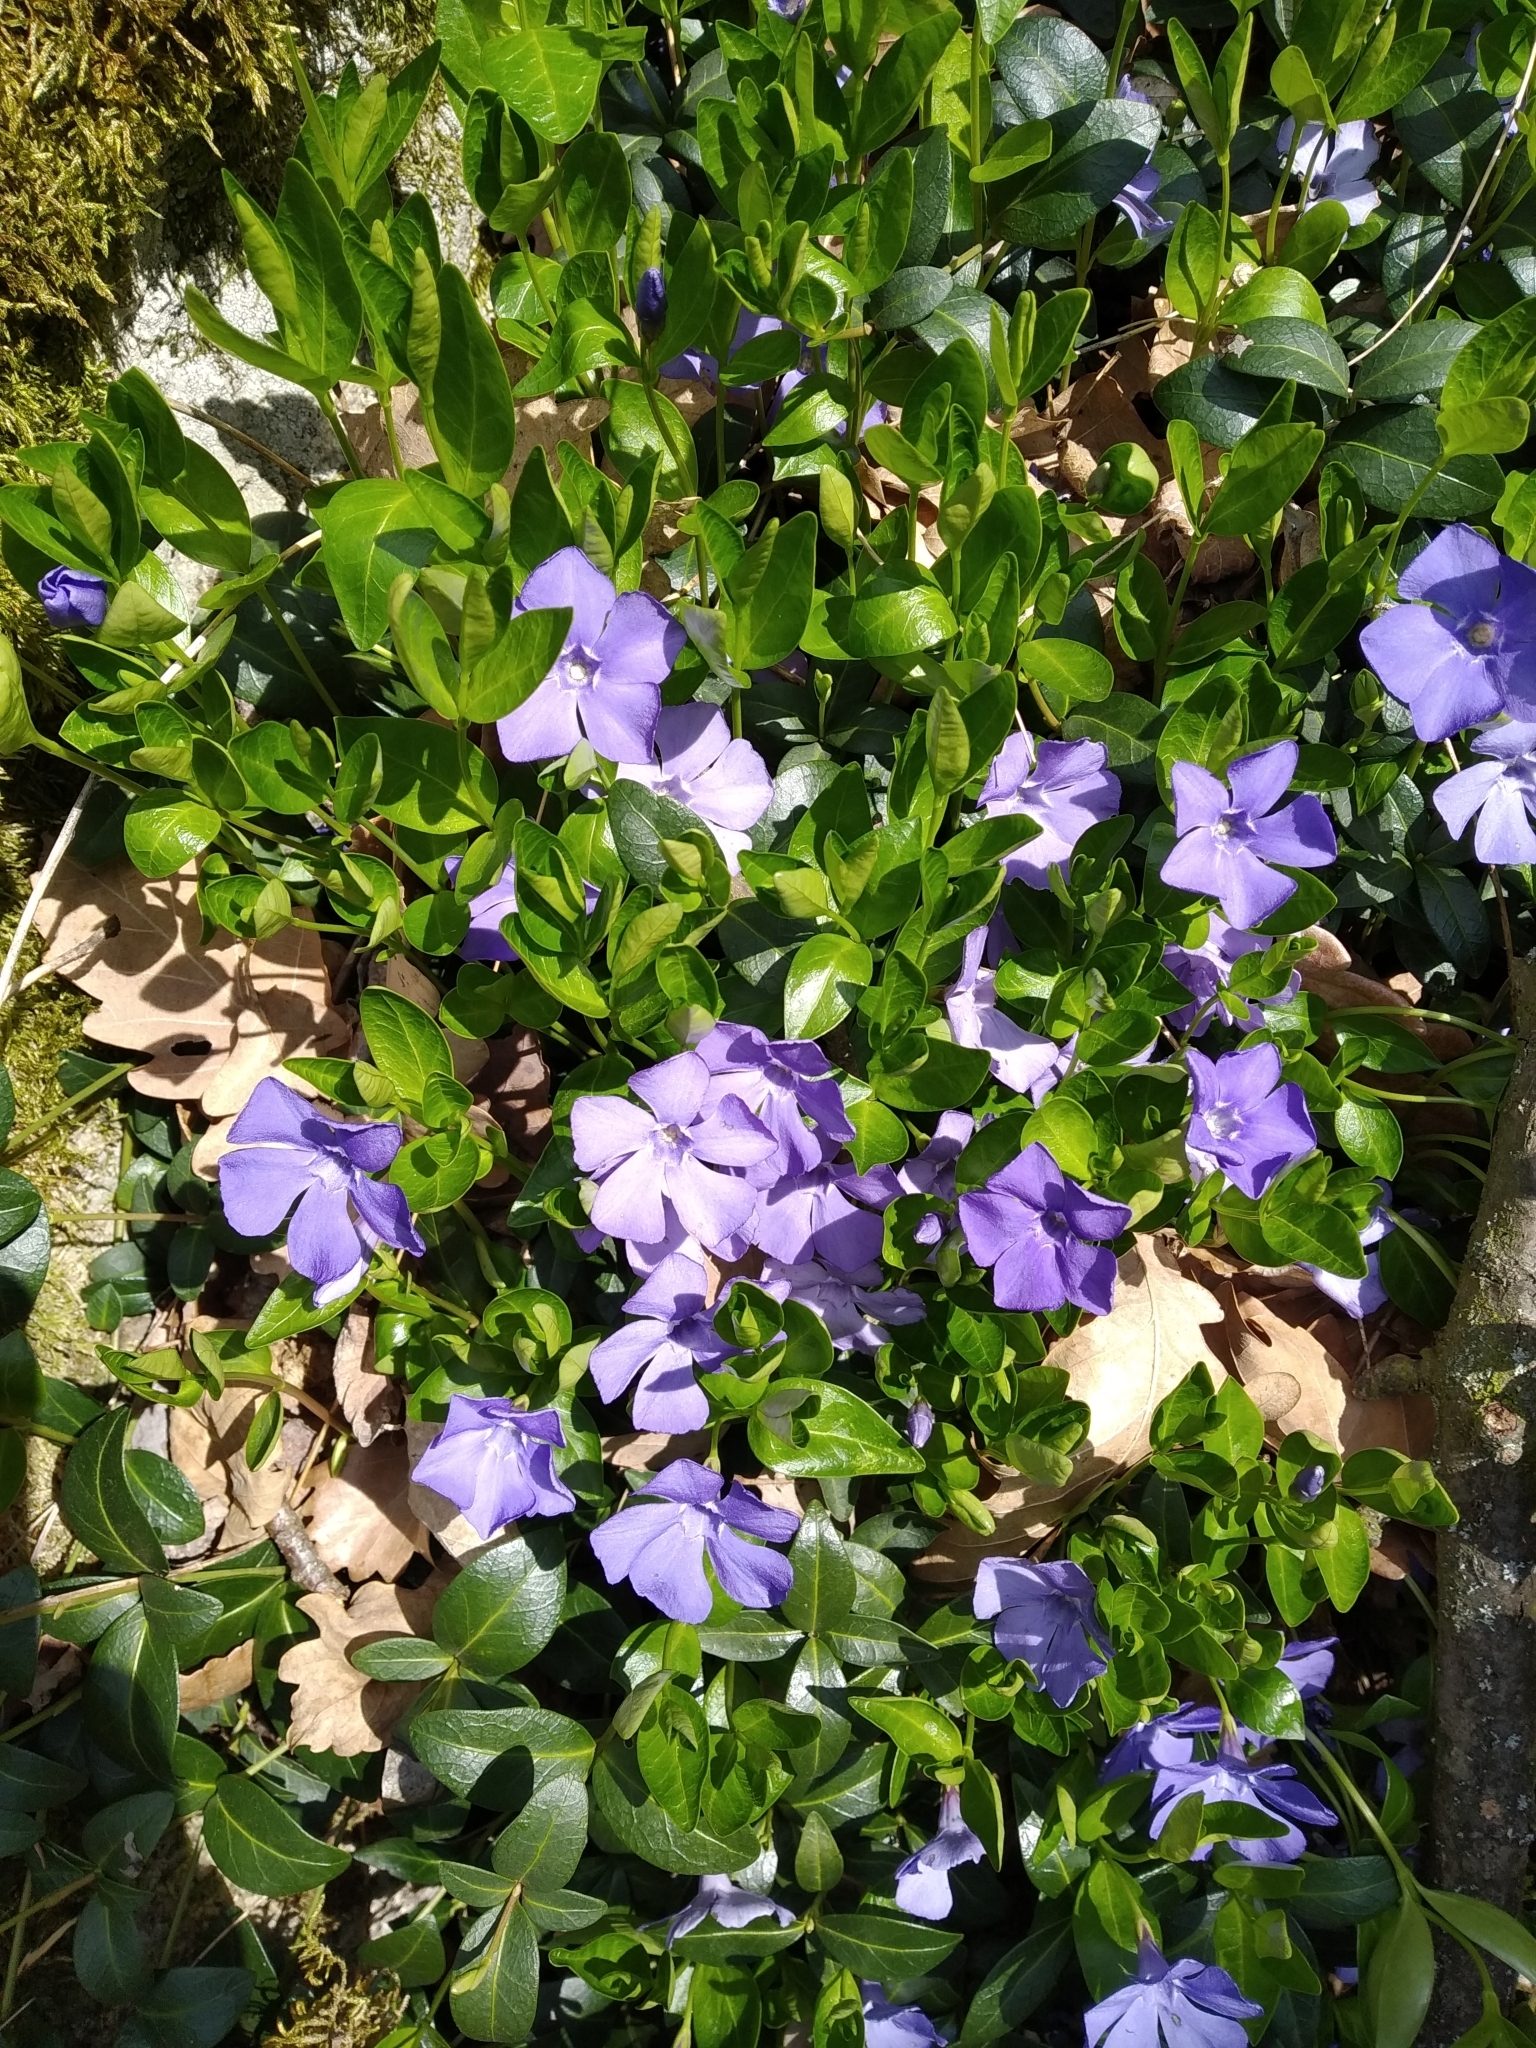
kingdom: Plantae
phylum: Tracheophyta
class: Magnoliopsida
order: Gentianales
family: Apocynaceae
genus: Vinca
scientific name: Vinca minor
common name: Lesser periwinkle
